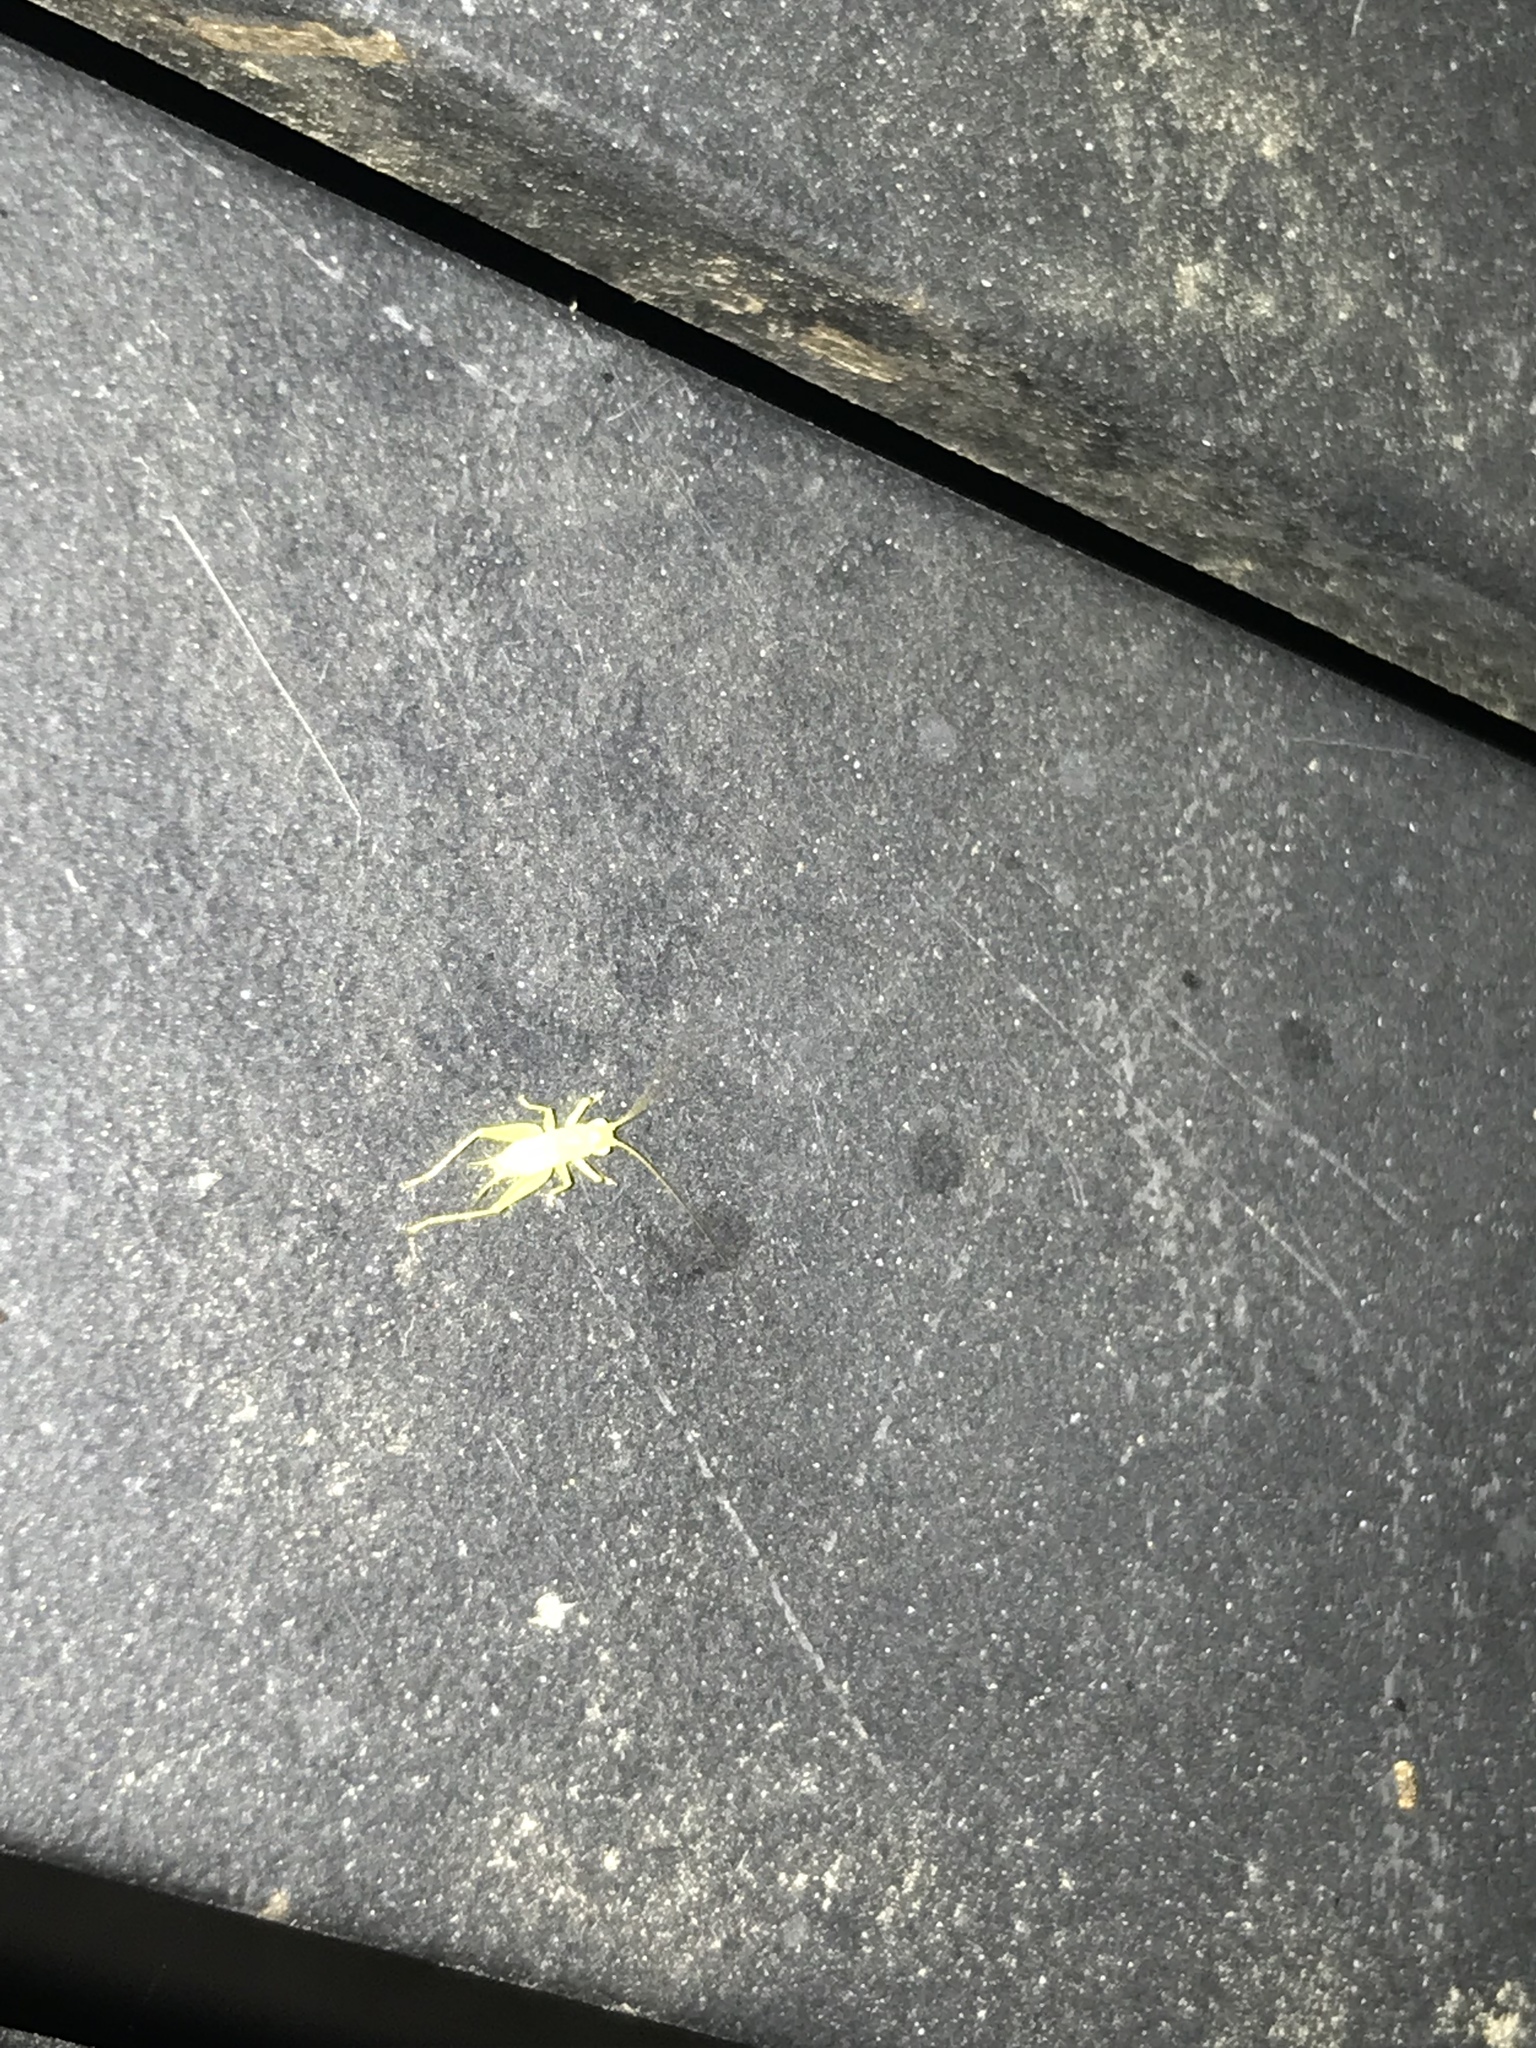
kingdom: Animalia
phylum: Arthropoda
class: Insecta
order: Orthoptera
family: Trigonidiidae
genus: Cyrtoxipha
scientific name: Cyrtoxipha columbiana
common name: Columbian trig
